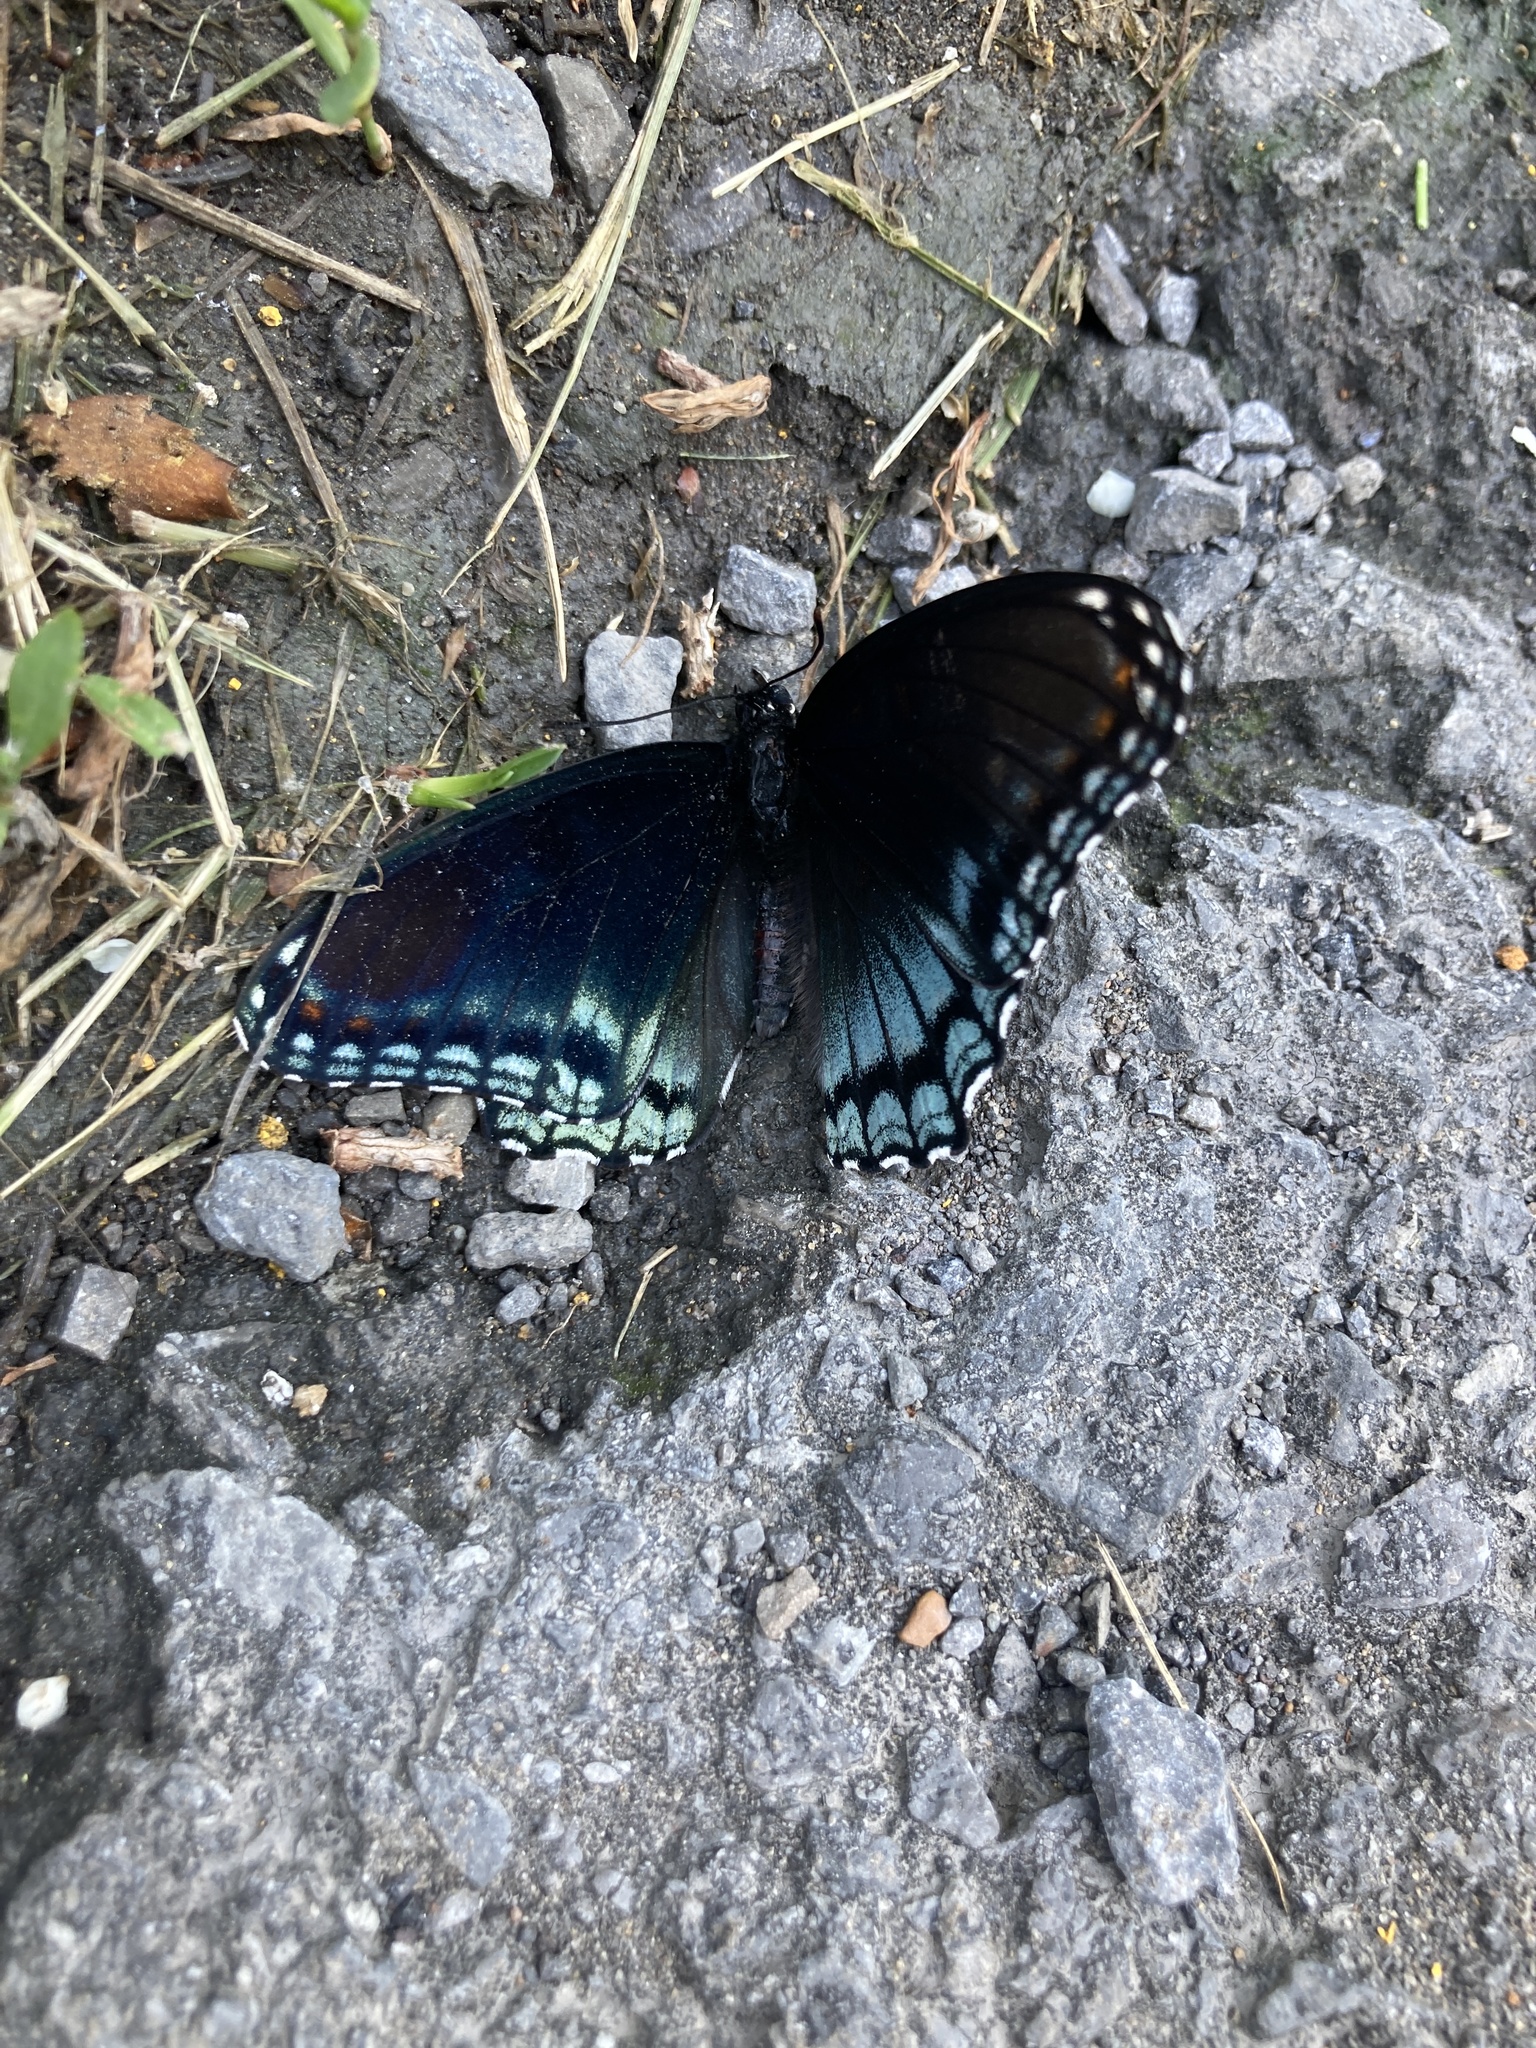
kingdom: Animalia
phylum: Arthropoda
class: Insecta
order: Lepidoptera
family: Nymphalidae
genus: Limenitis
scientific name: Limenitis astyanax
